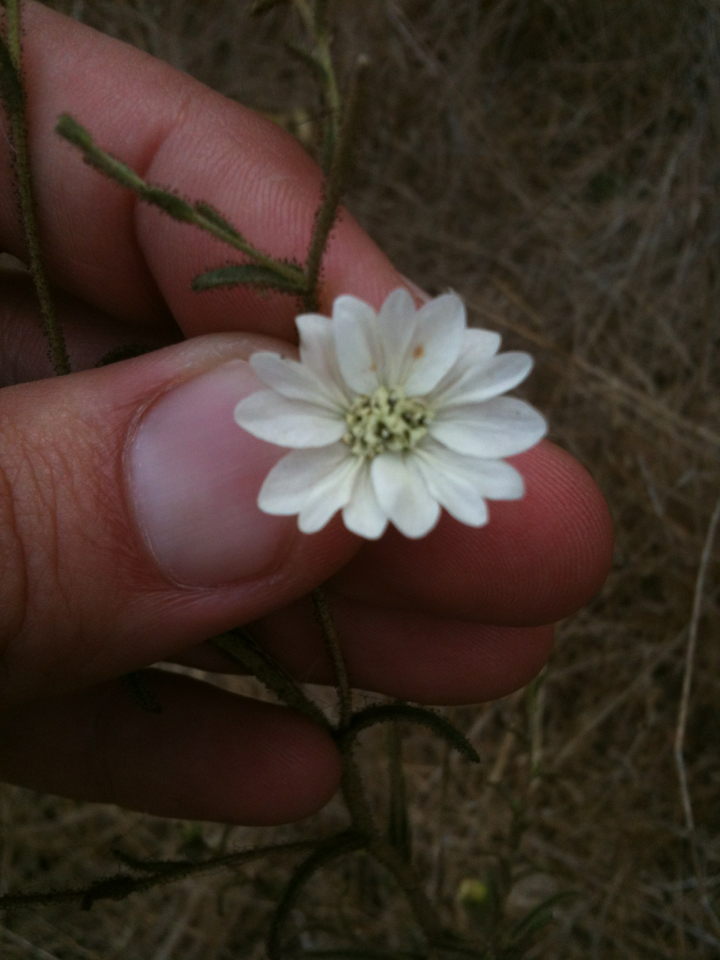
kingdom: Plantae
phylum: Tracheophyta
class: Magnoliopsida
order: Asterales
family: Asteraceae
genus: Hemizonia
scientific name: Hemizonia congesta
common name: Hayfield tarweed
